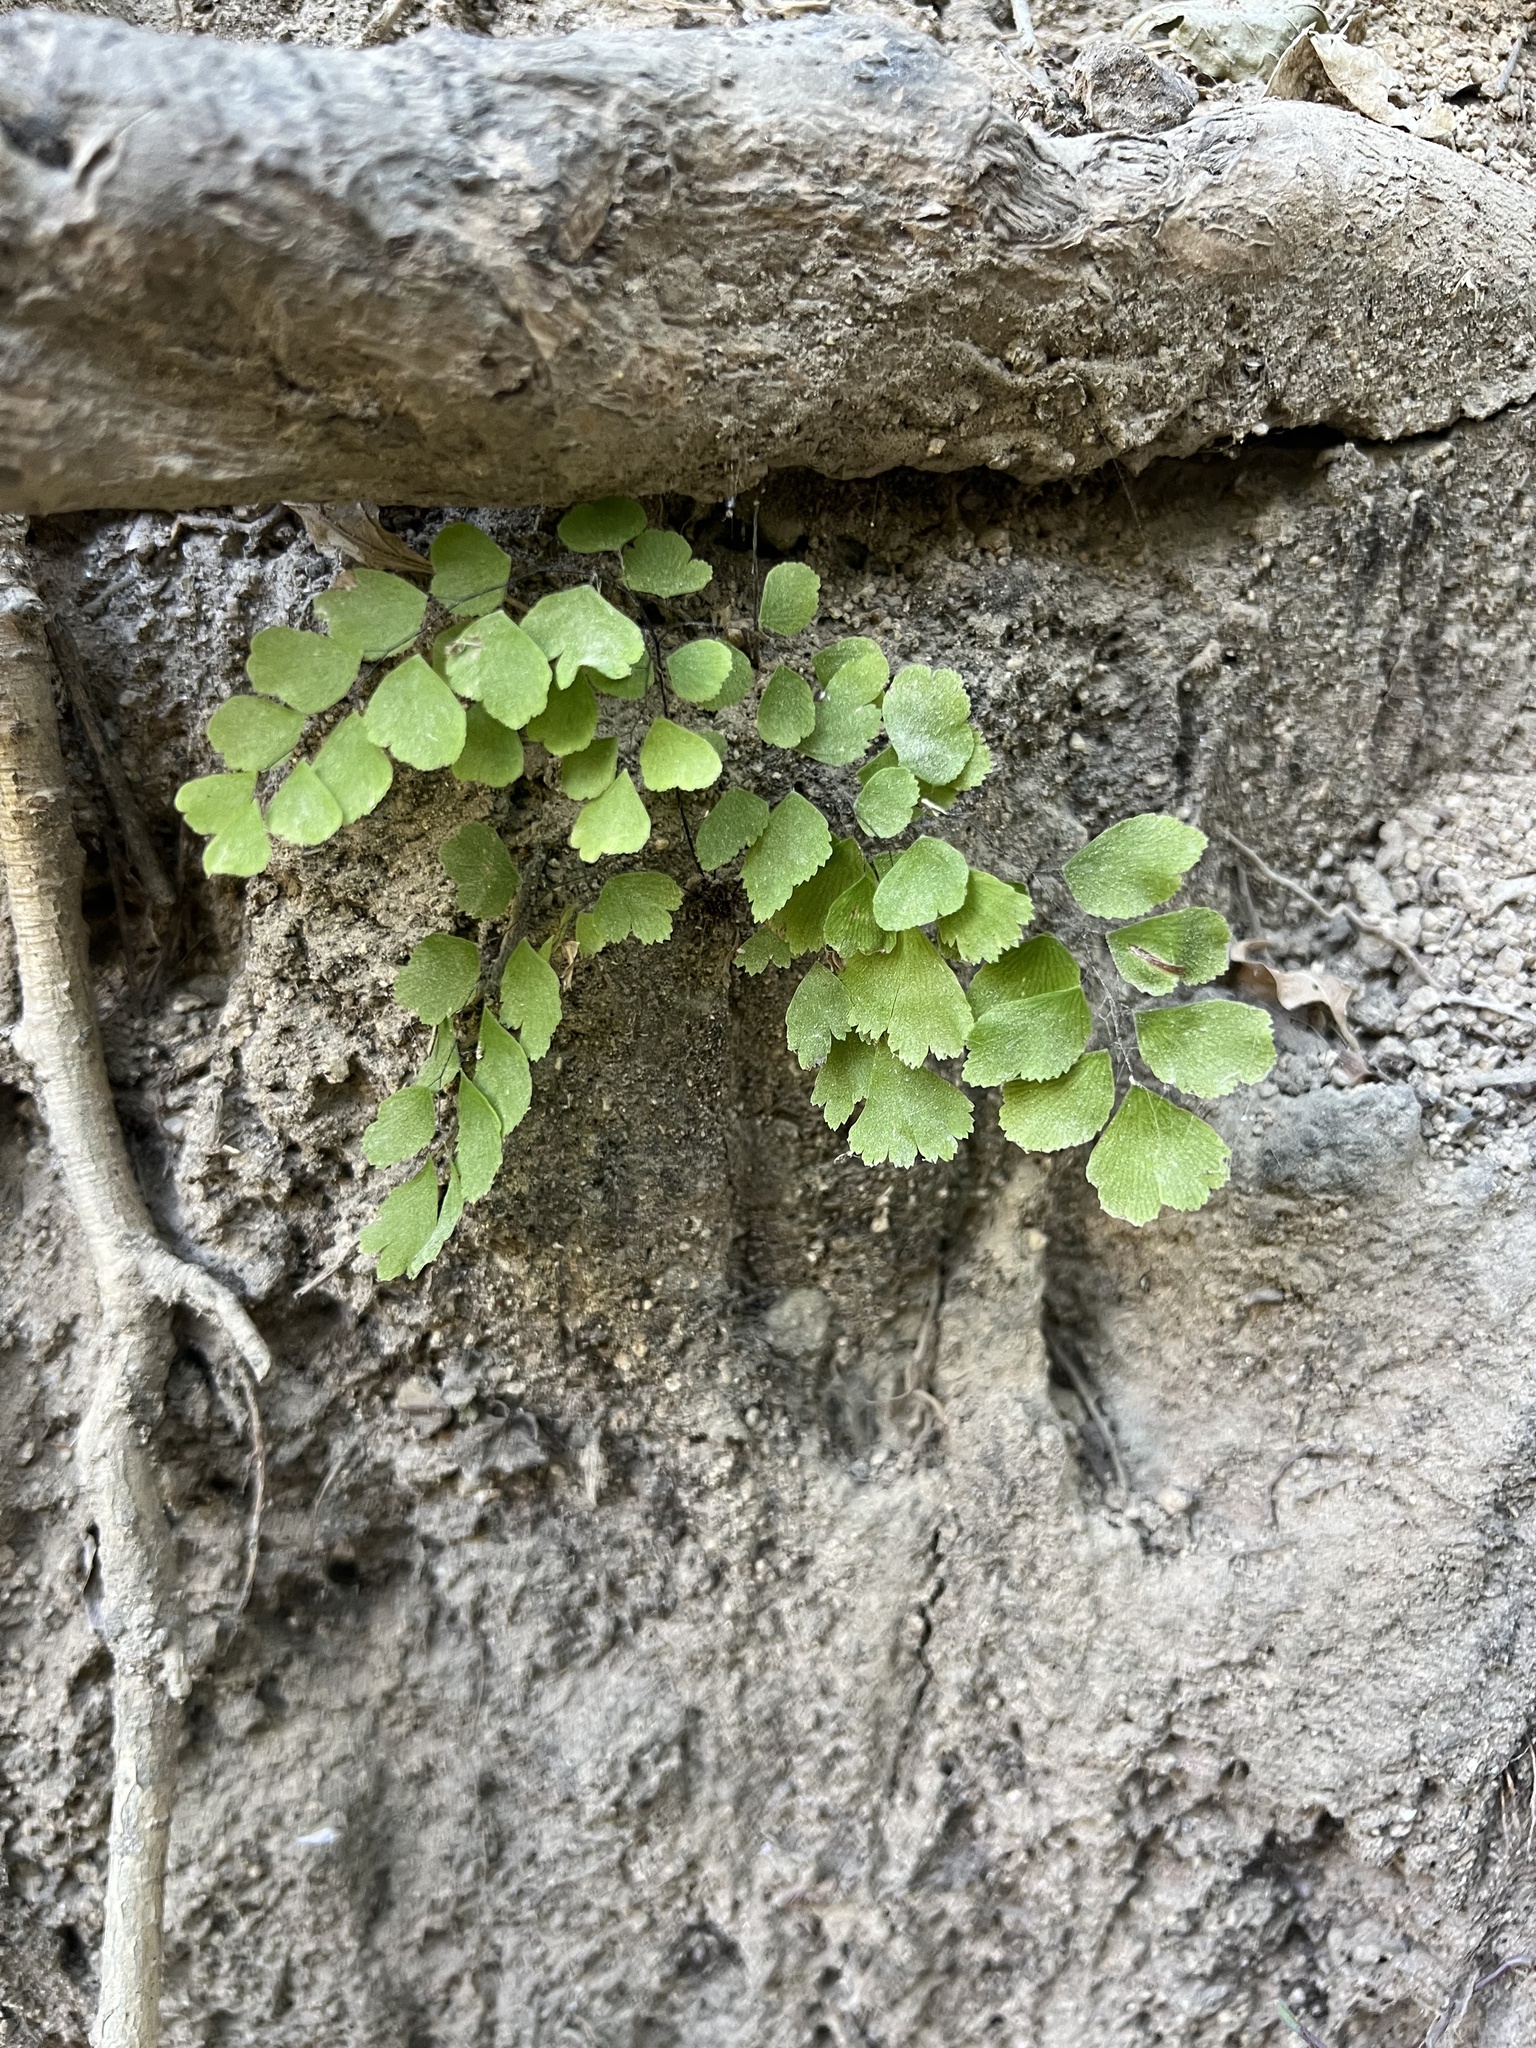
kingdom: Plantae
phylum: Tracheophyta
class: Polypodiopsida
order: Polypodiales
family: Pteridaceae
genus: Adiantum
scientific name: Adiantum capillus-veneris
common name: Maidenhair fern
